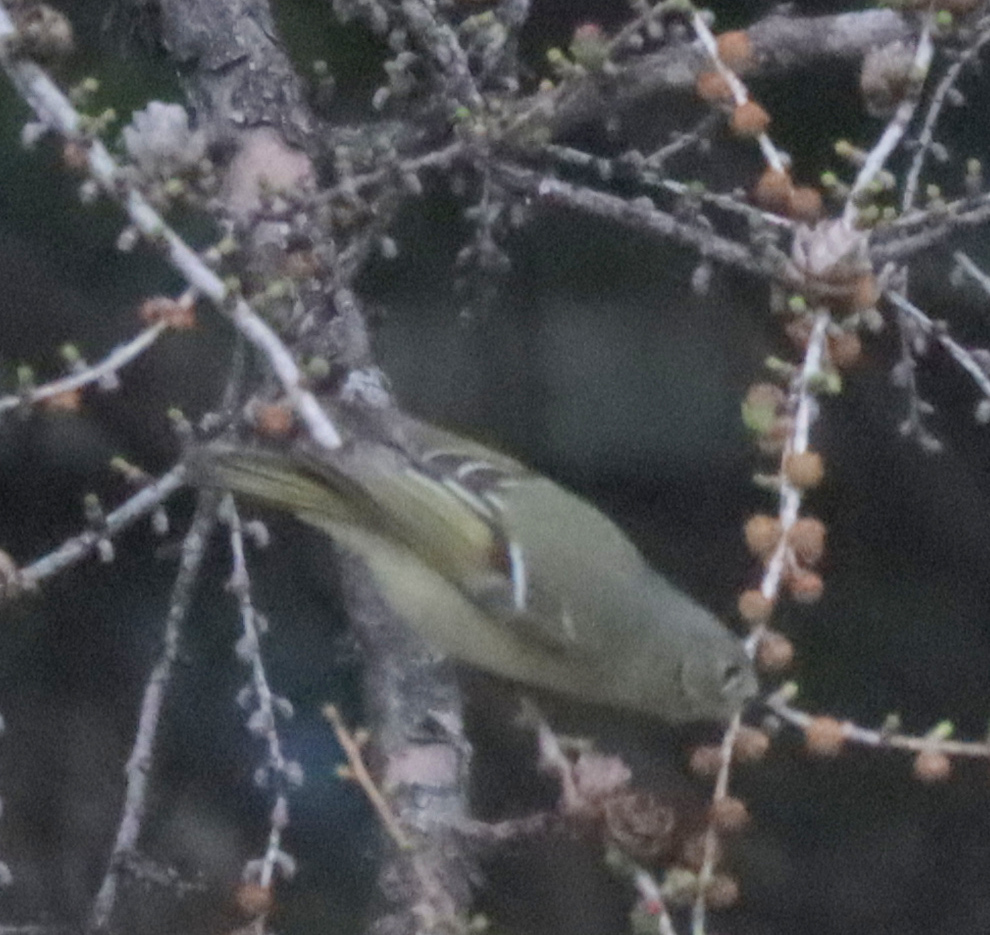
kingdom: Animalia
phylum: Chordata
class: Aves
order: Passeriformes
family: Regulidae
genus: Regulus
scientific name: Regulus calendula
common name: Ruby-crowned kinglet
